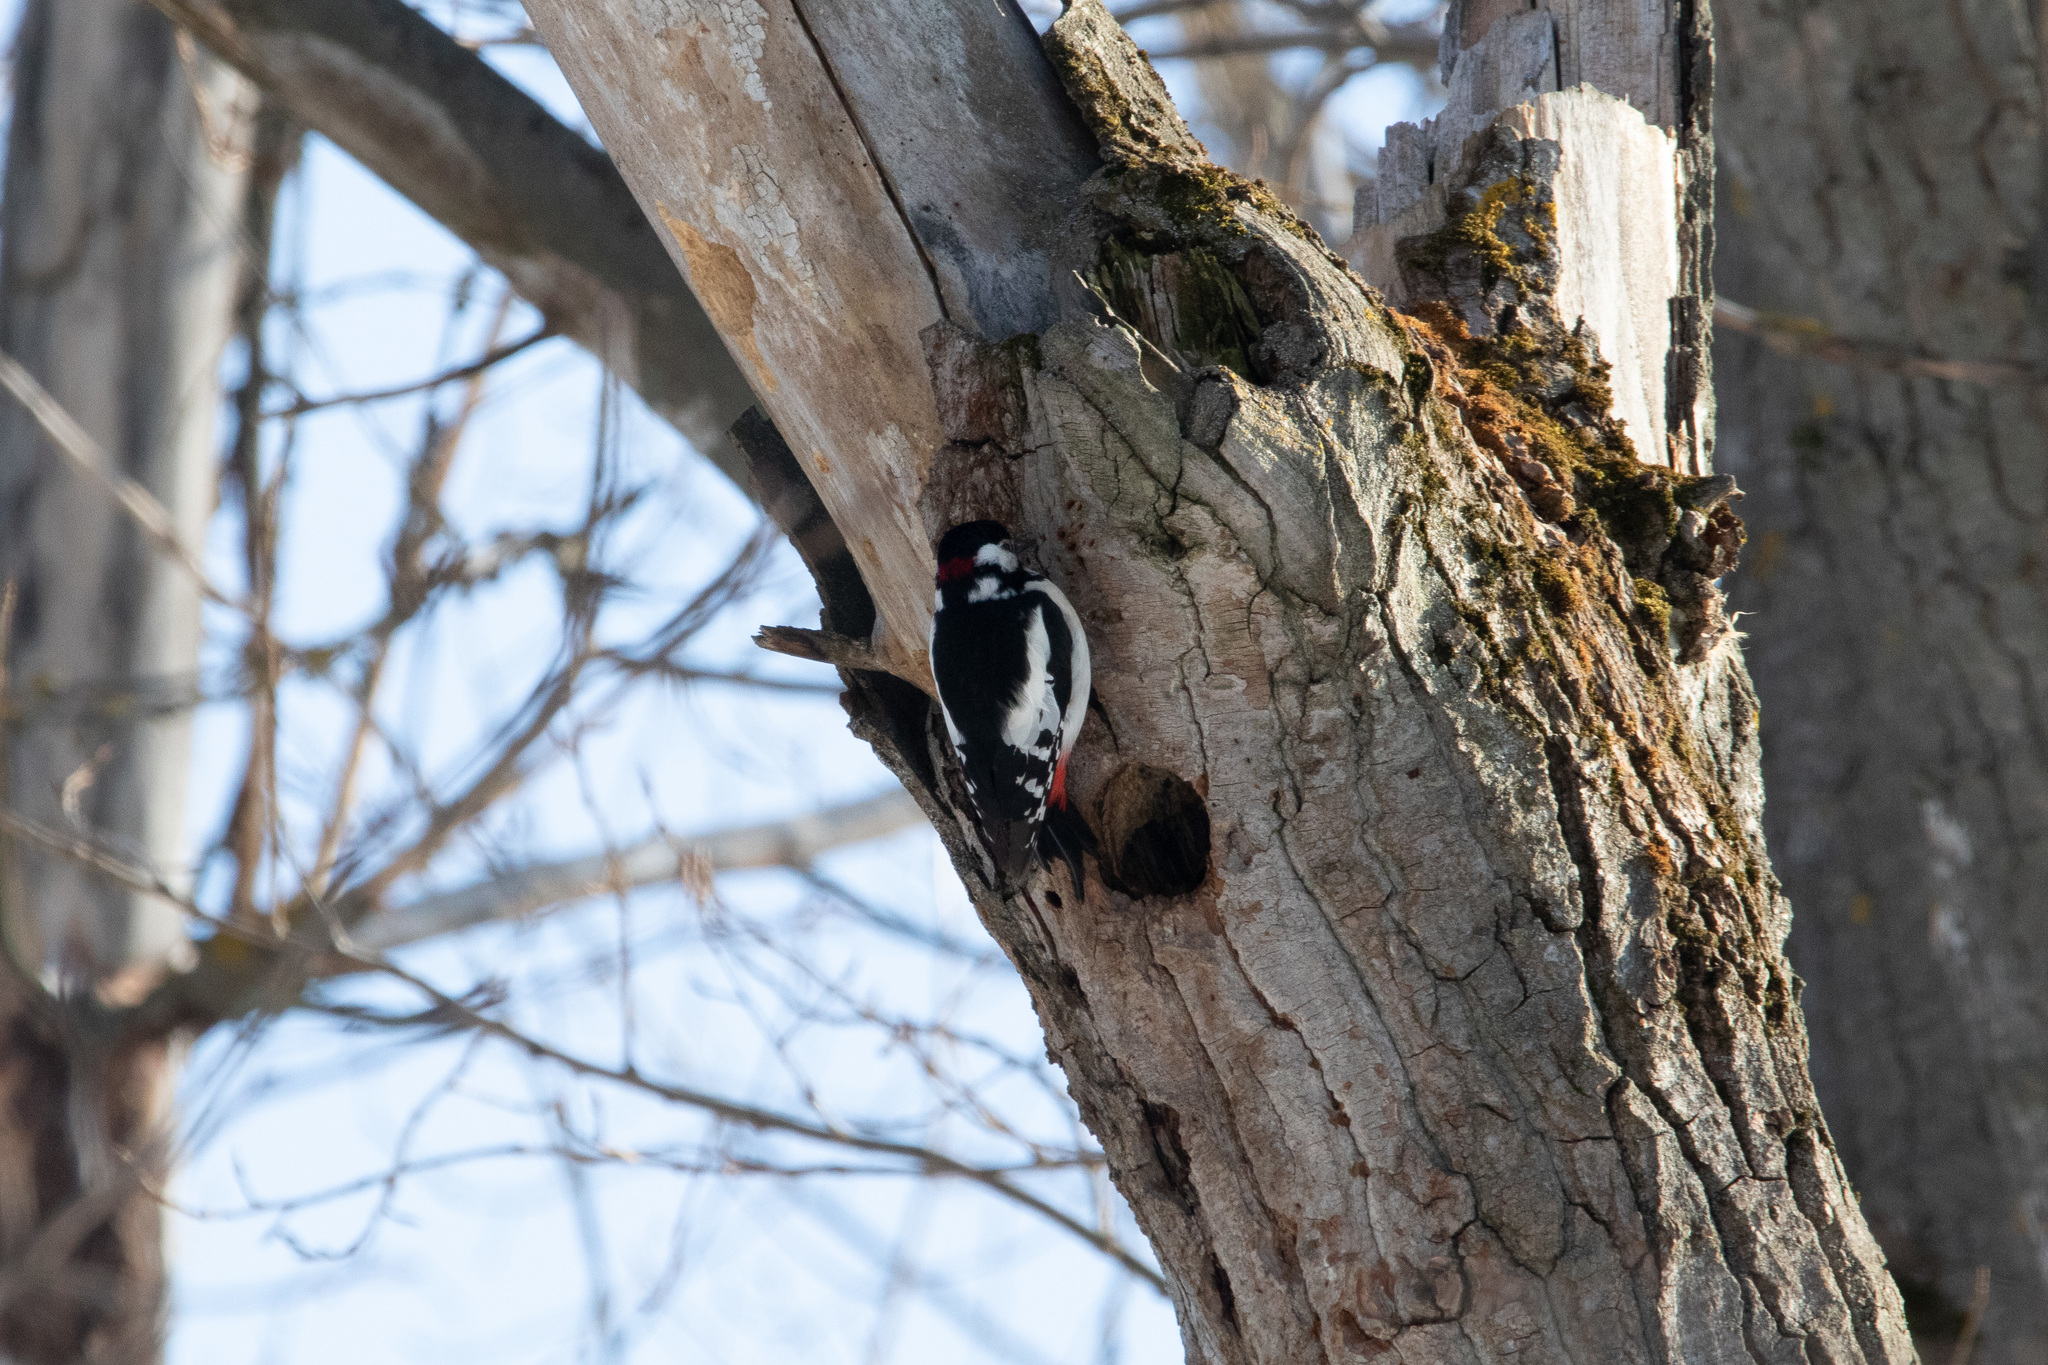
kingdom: Animalia
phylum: Chordata
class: Aves
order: Piciformes
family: Picidae
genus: Dendrocopos
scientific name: Dendrocopos major
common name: Great spotted woodpecker
